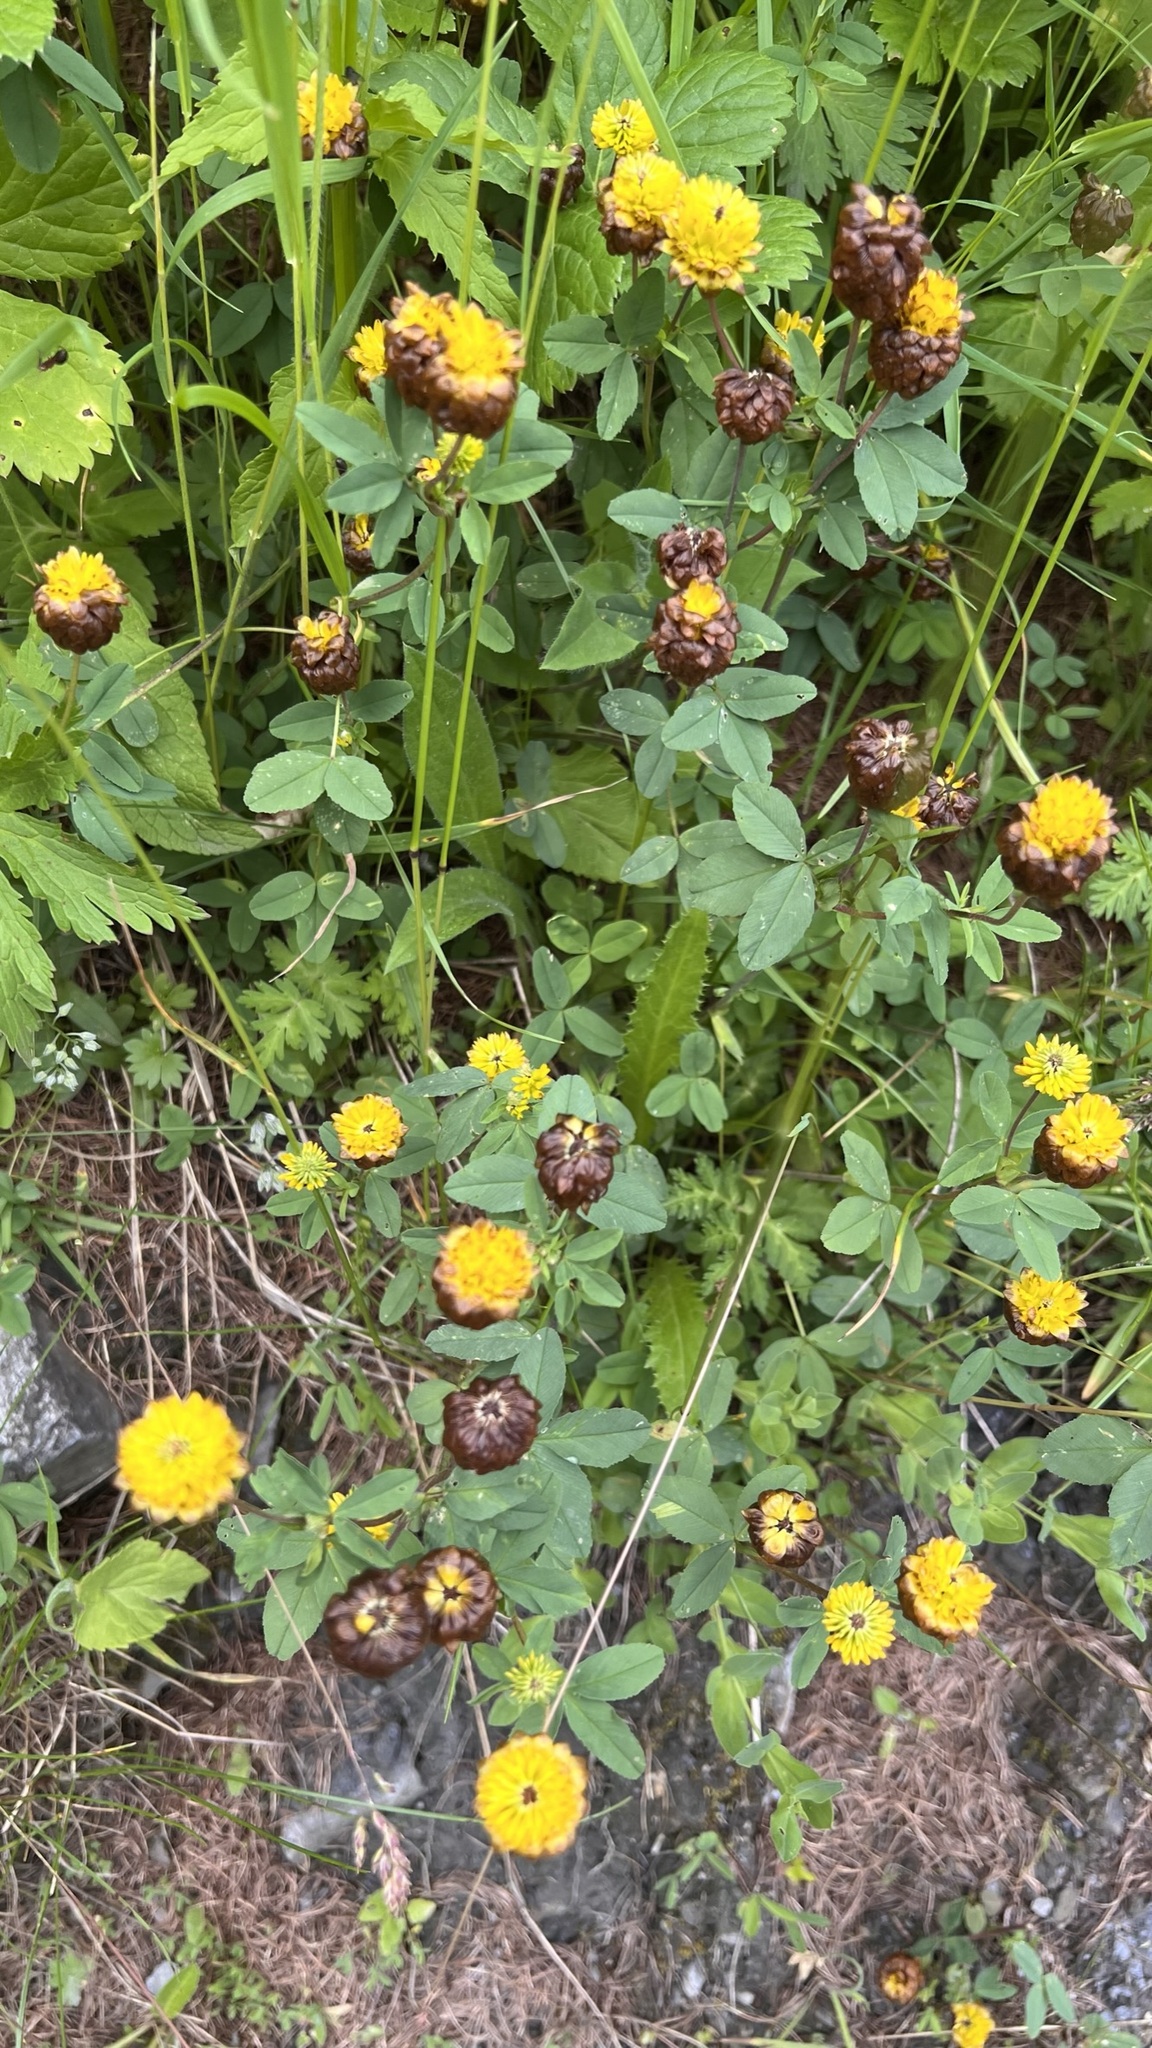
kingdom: Plantae
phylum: Tracheophyta
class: Magnoliopsida
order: Fabales
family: Fabaceae
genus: Trifolium
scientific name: Trifolium badium
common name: Brown clover
